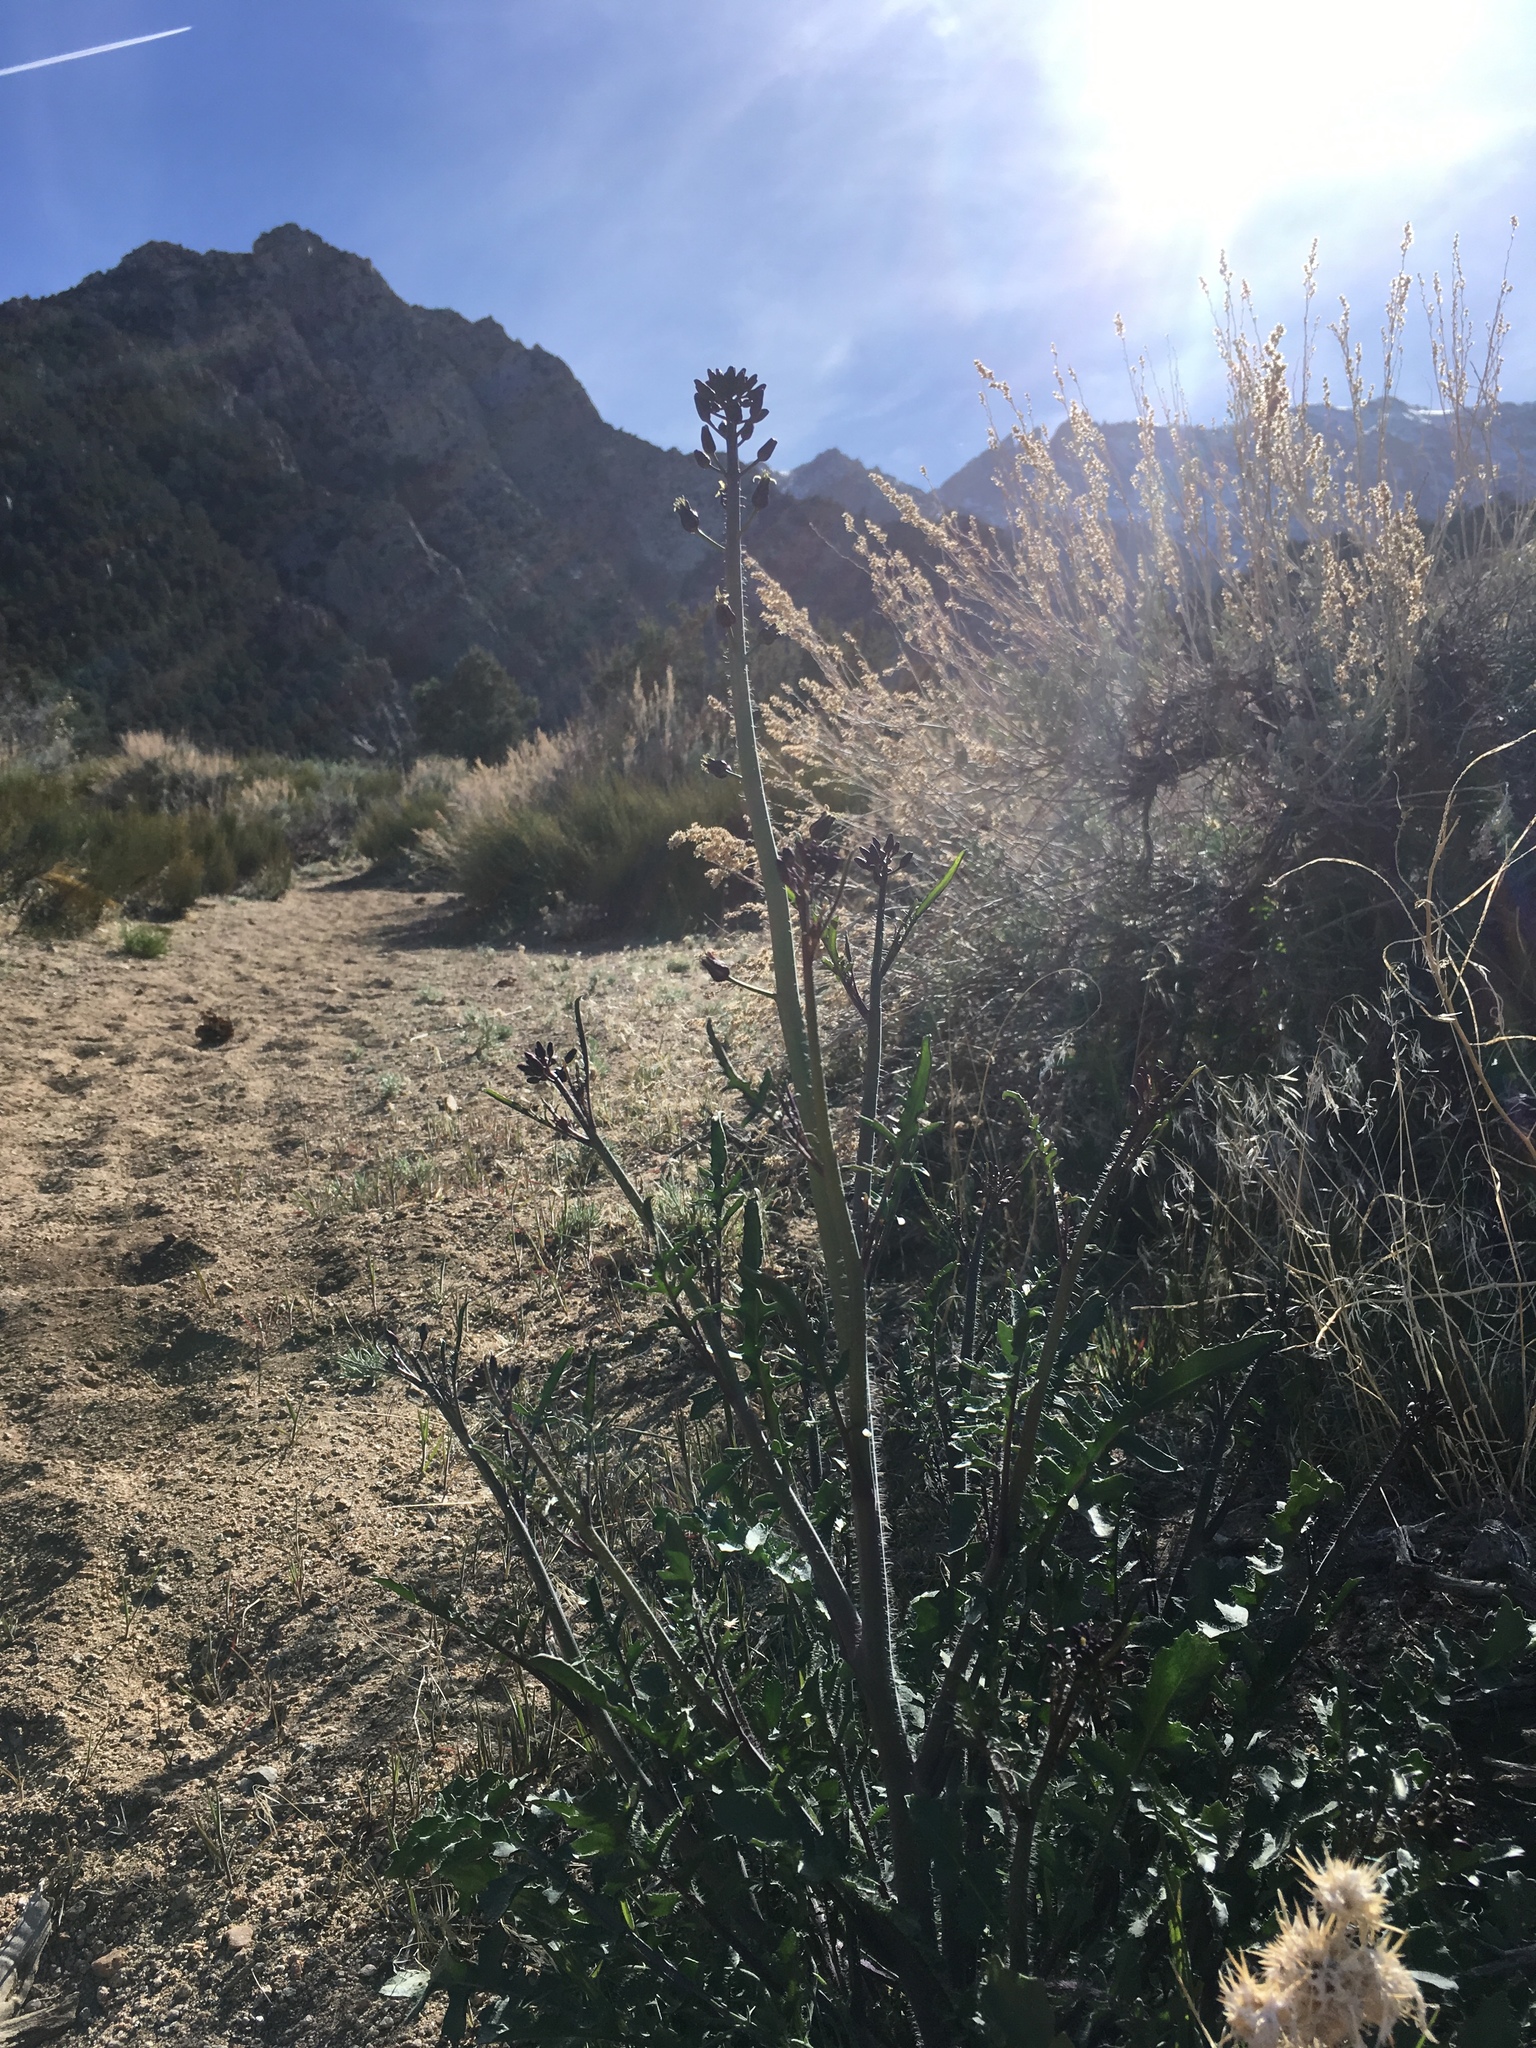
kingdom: Plantae
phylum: Tracheophyta
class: Magnoliopsida
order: Brassicales
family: Brassicaceae
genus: Streptanthus
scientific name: Streptanthus pilosus
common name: Chocolate drops
